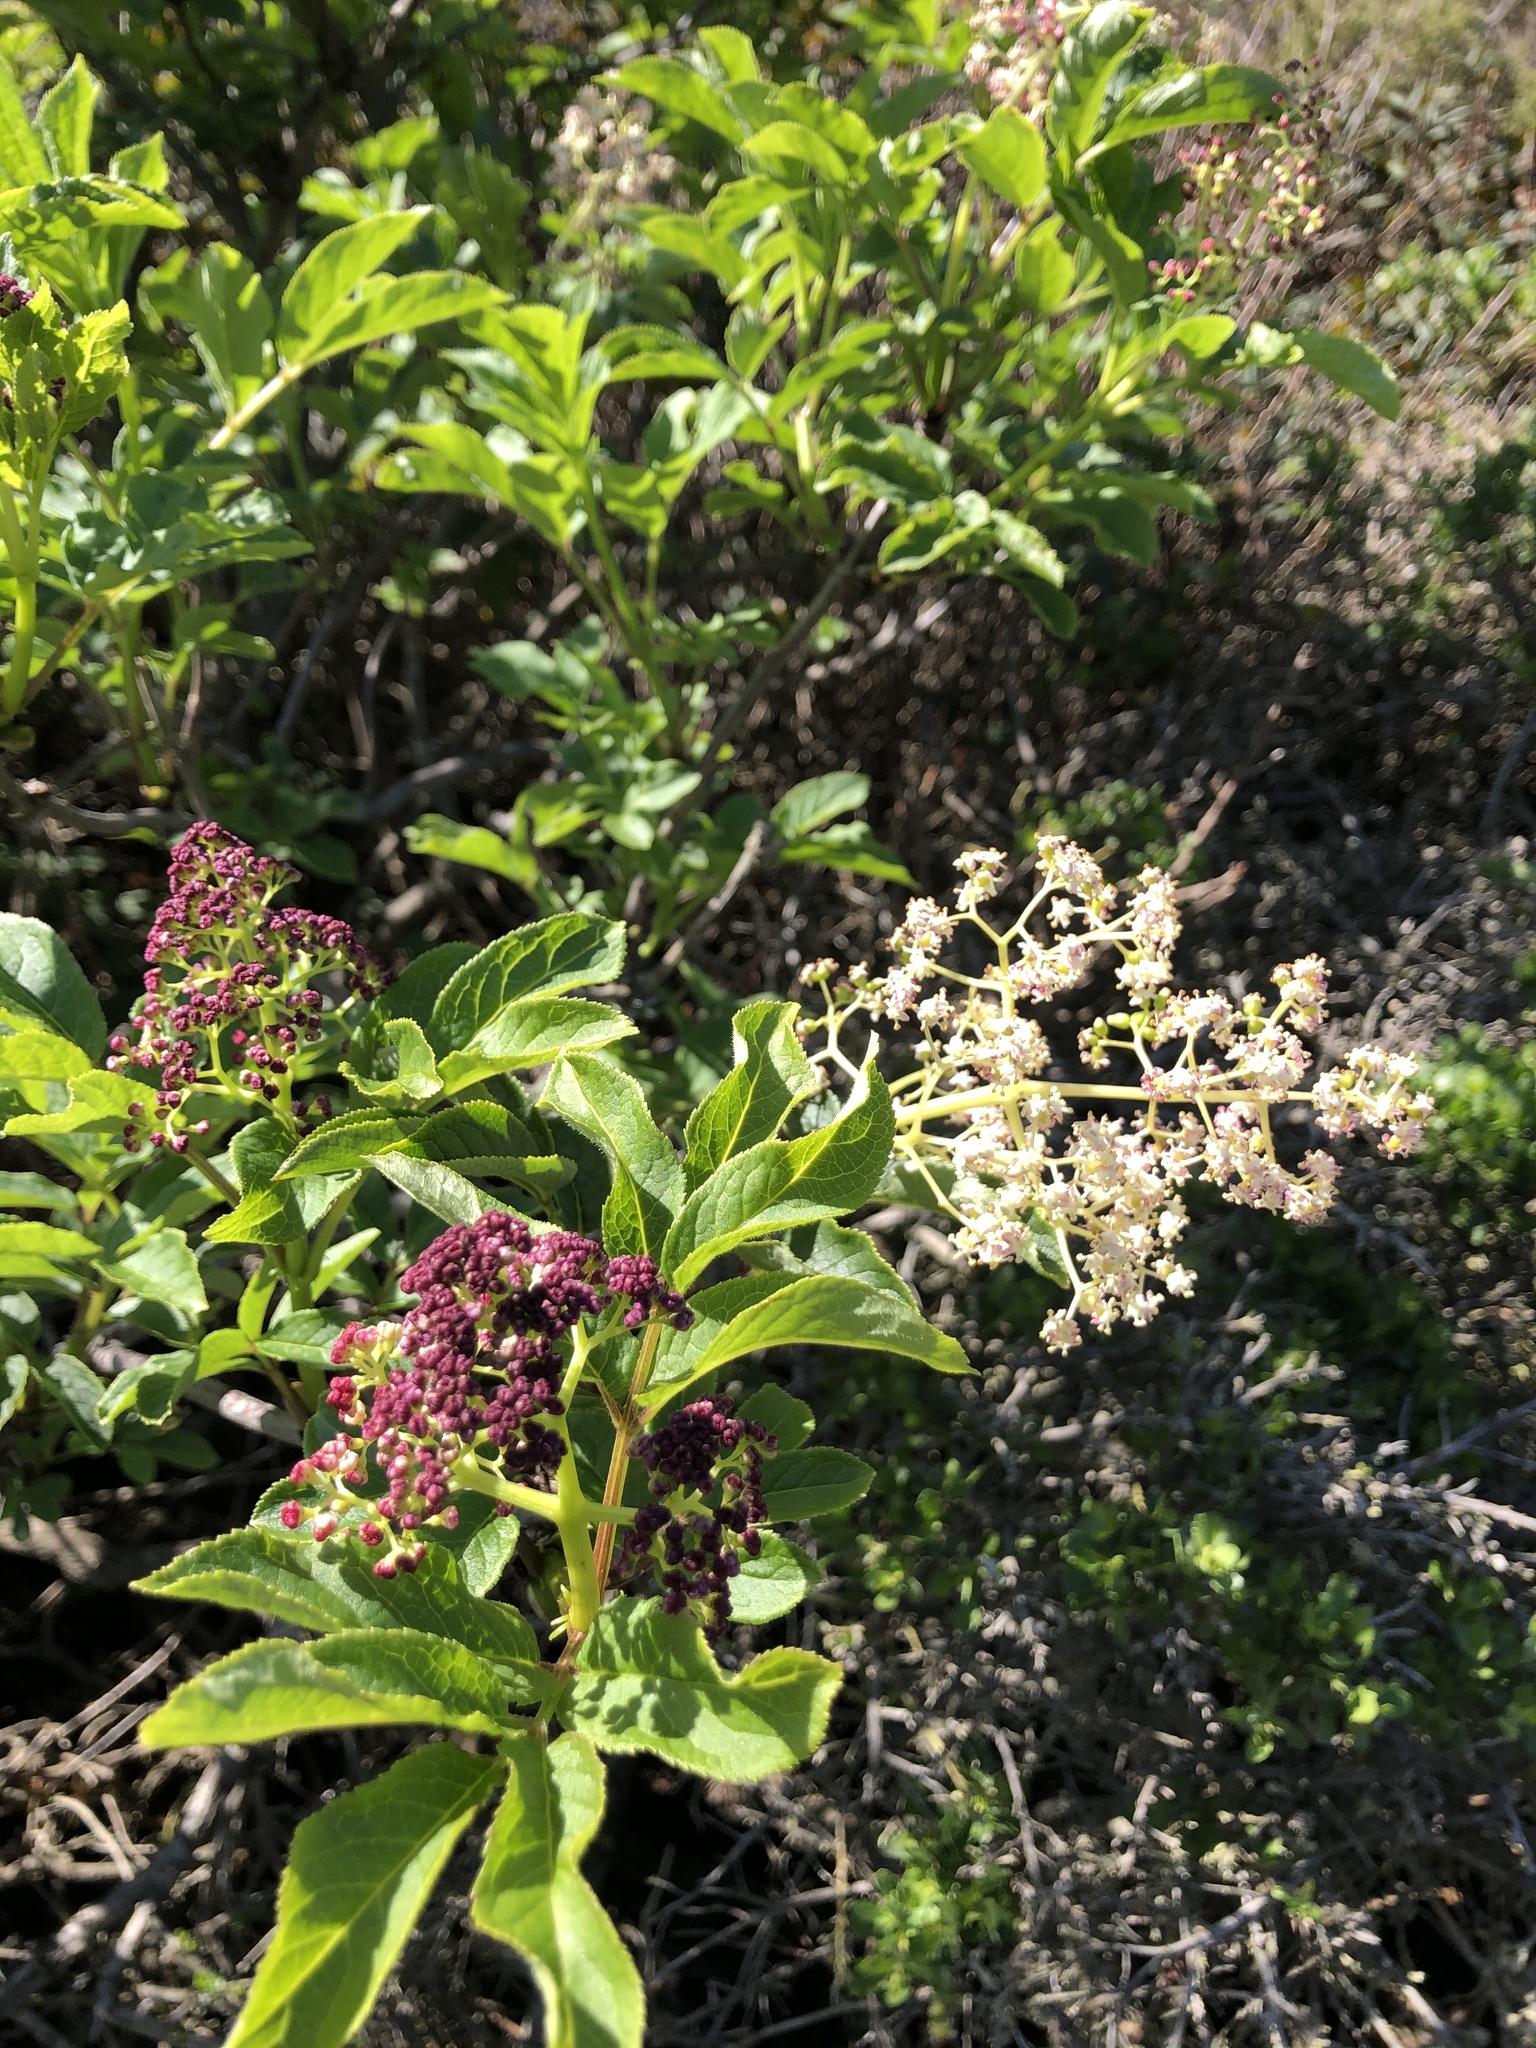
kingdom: Plantae
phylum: Tracheophyta
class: Magnoliopsida
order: Dipsacales
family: Viburnaceae
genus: Sambucus
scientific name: Sambucus racemosa
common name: Red-berried elder
